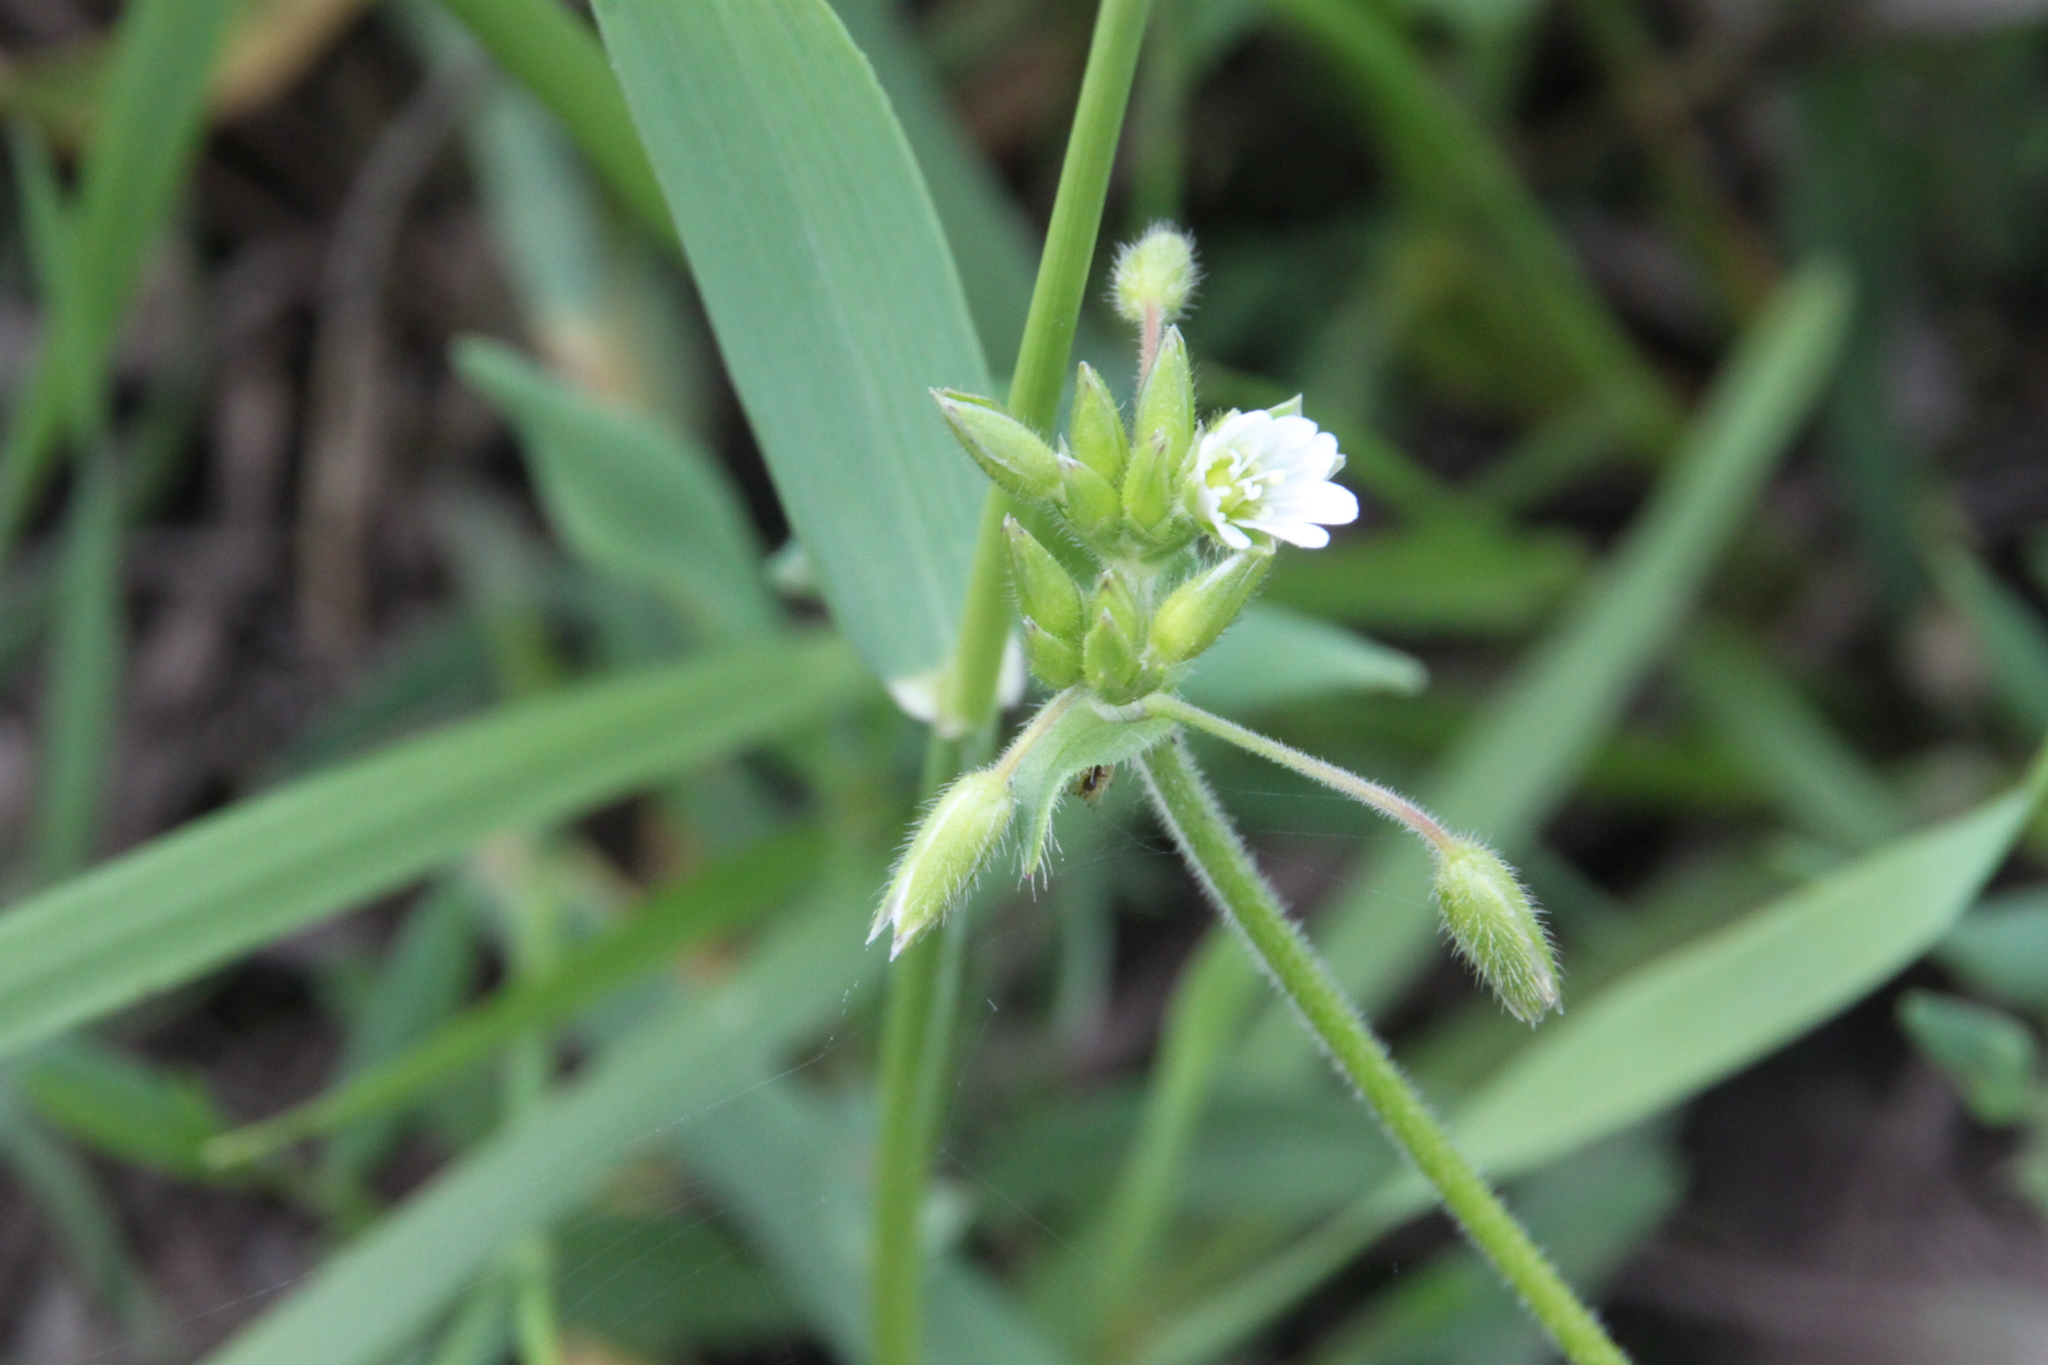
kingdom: Plantae
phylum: Tracheophyta
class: Magnoliopsida
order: Caryophyllales
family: Caryophyllaceae
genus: Cerastium
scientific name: Cerastium holosteoides
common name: Big chickweed
